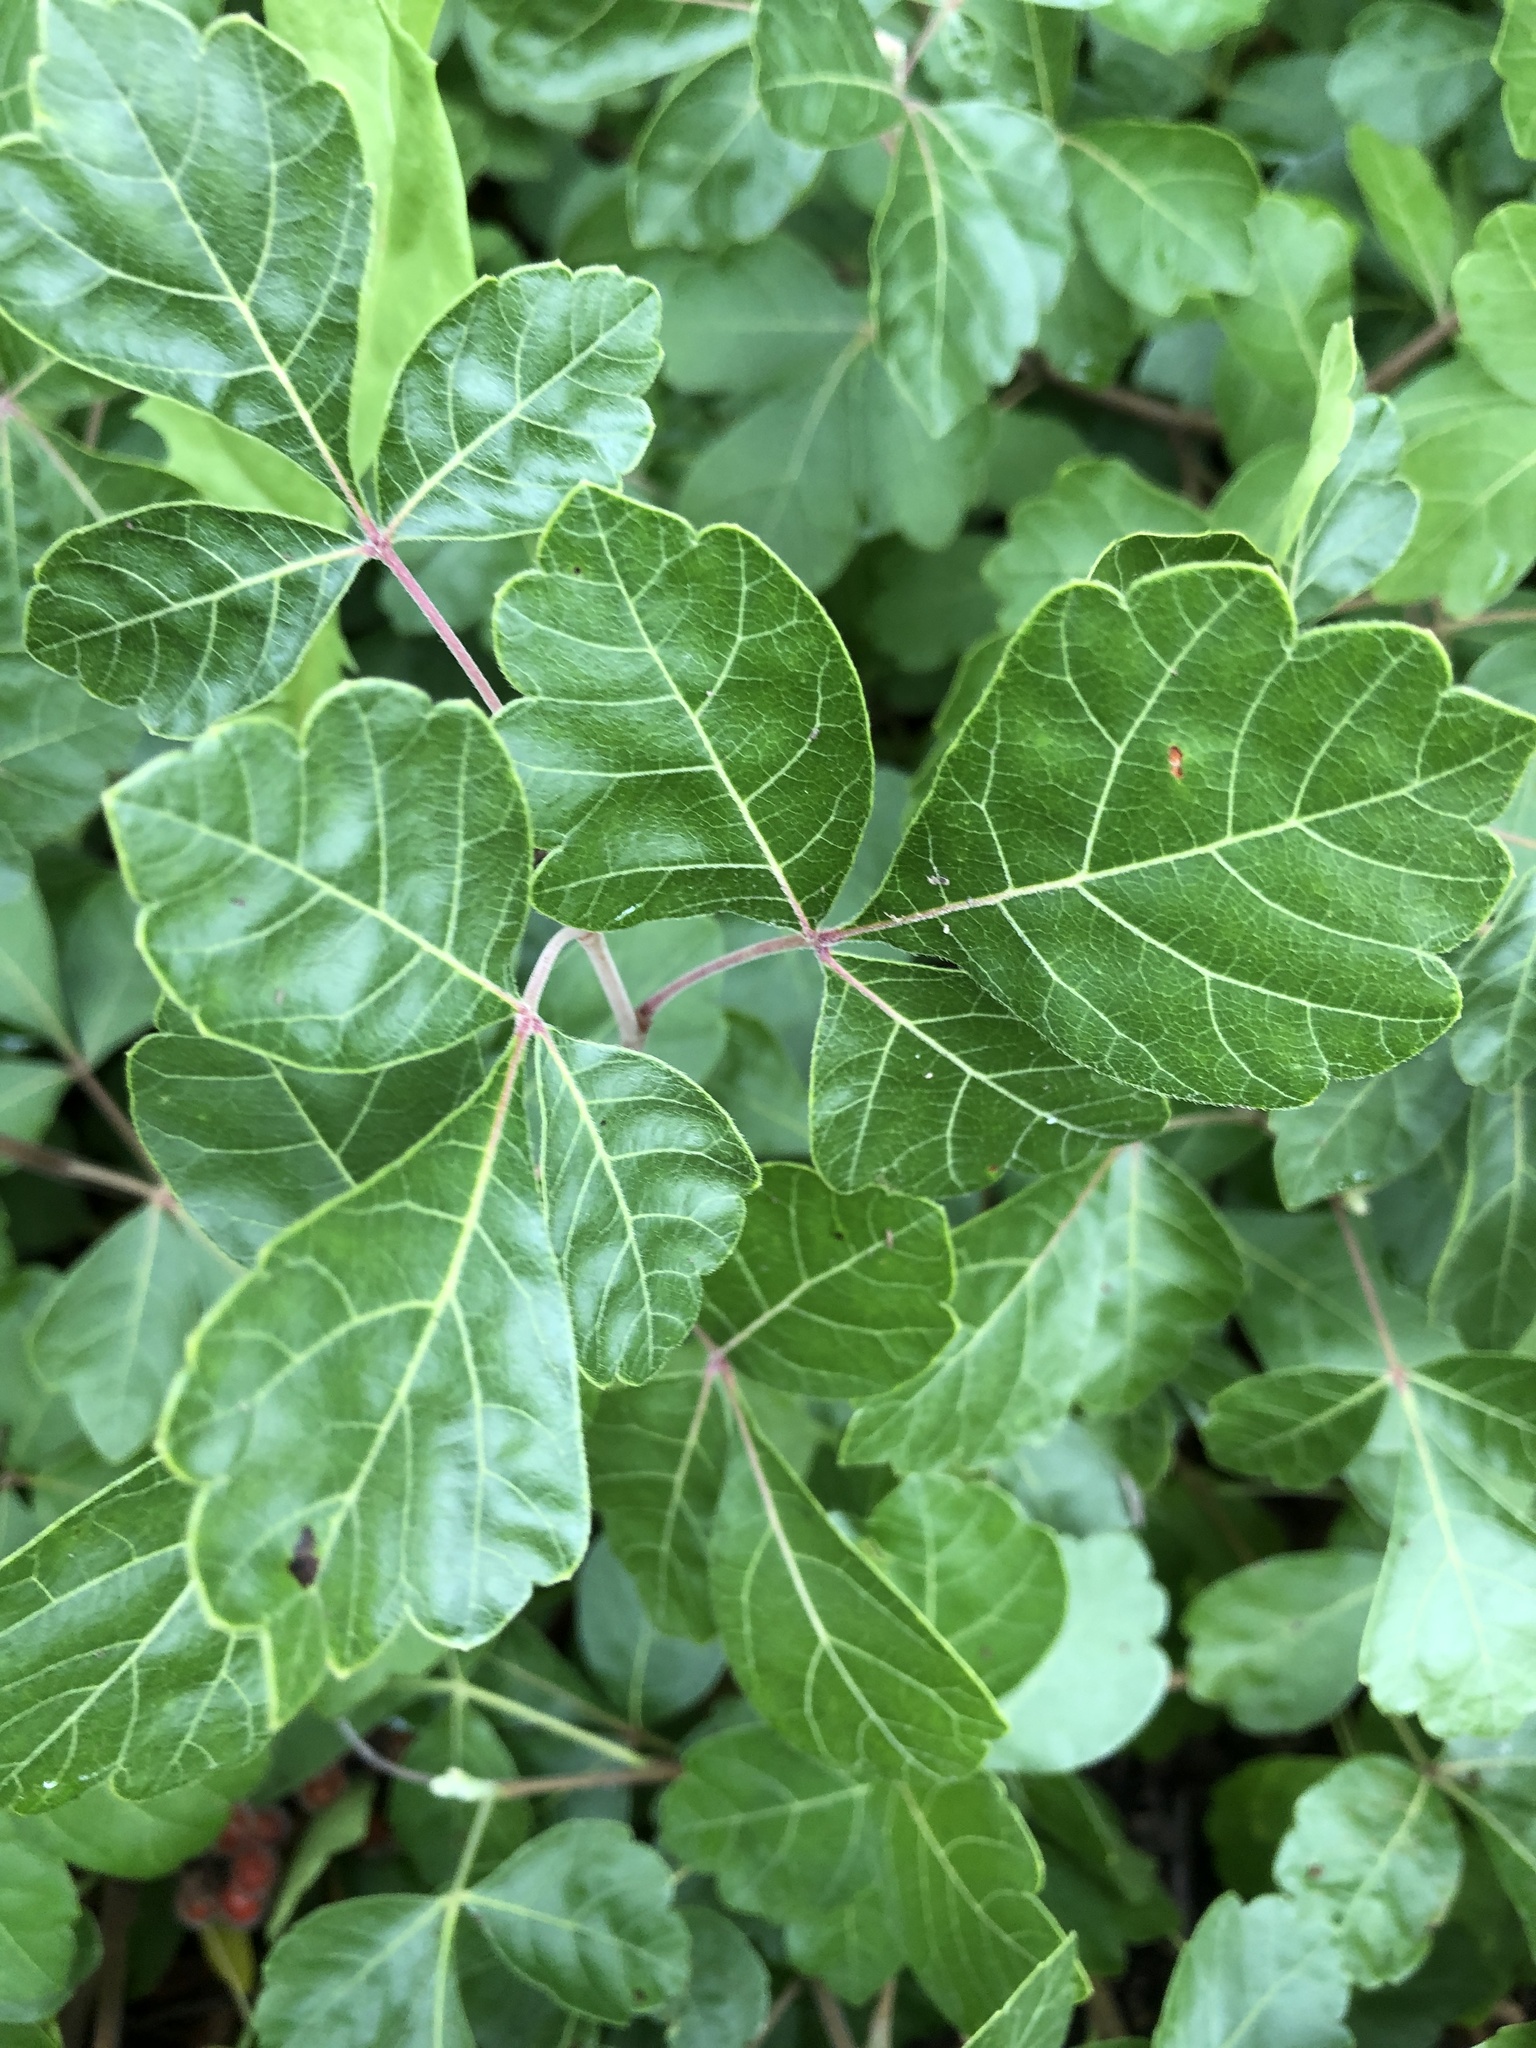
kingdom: Plantae
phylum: Tracheophyta
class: Magnoliopsida
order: Sapindales
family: Anacardiaceae
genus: Rhus
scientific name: Rhus aromatica
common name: Aromatic sumac
